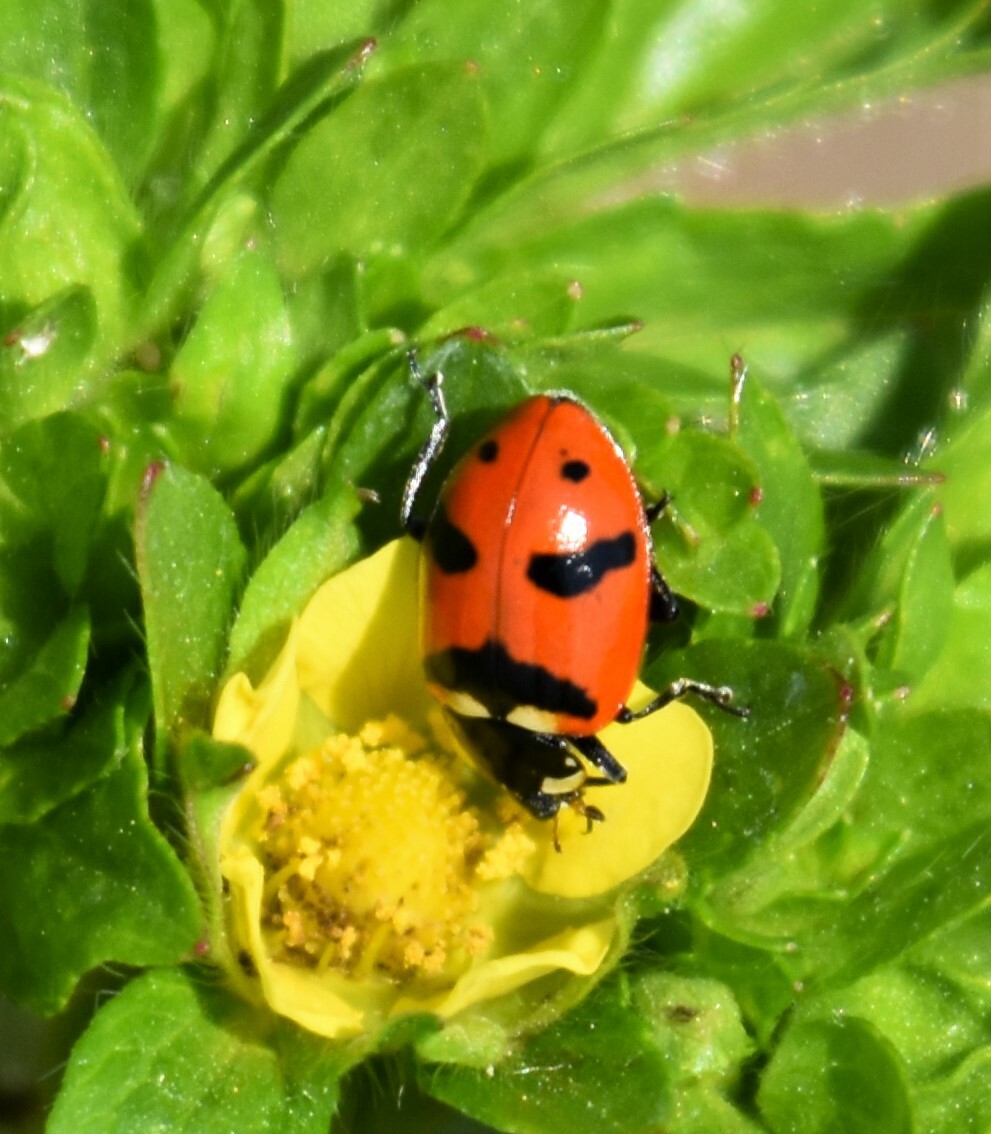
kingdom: Animalia
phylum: Arthropoda
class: Insecta
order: Coleoptera
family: Coccinellidae
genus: Hippodamia
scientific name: Hippodamia quinquesignata
